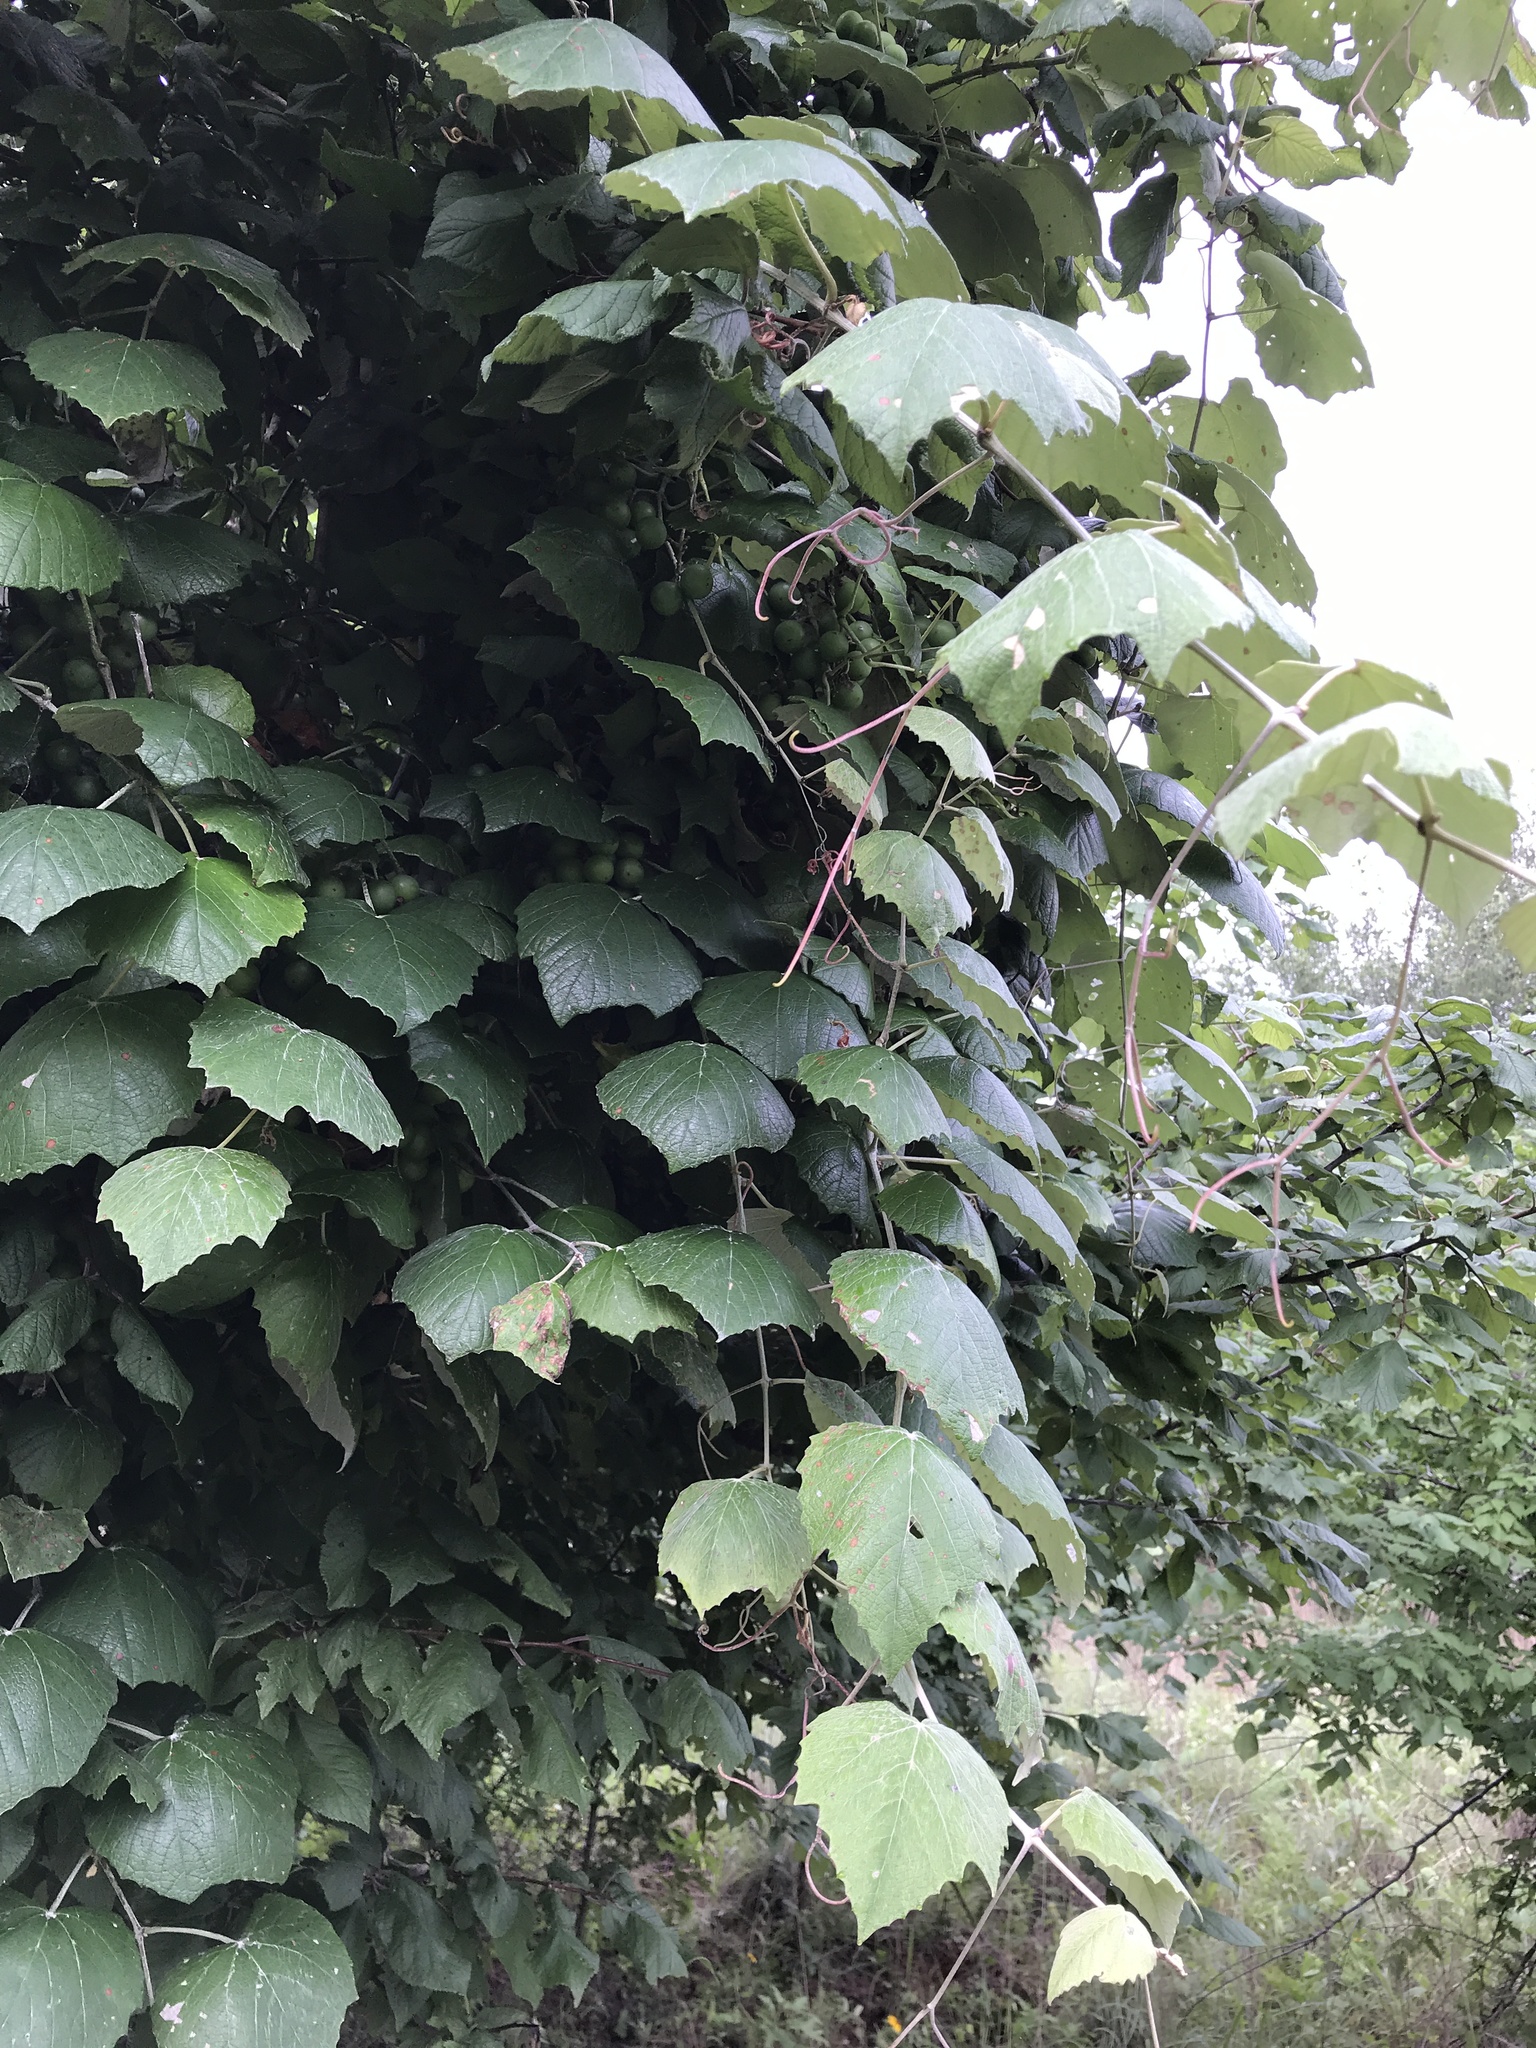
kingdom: Plantae
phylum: Tracheophyta
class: Magnoliopsida
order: Vitales
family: Vitaceae
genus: Vitis
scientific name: Vitis mustangensis
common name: Mustang grape
